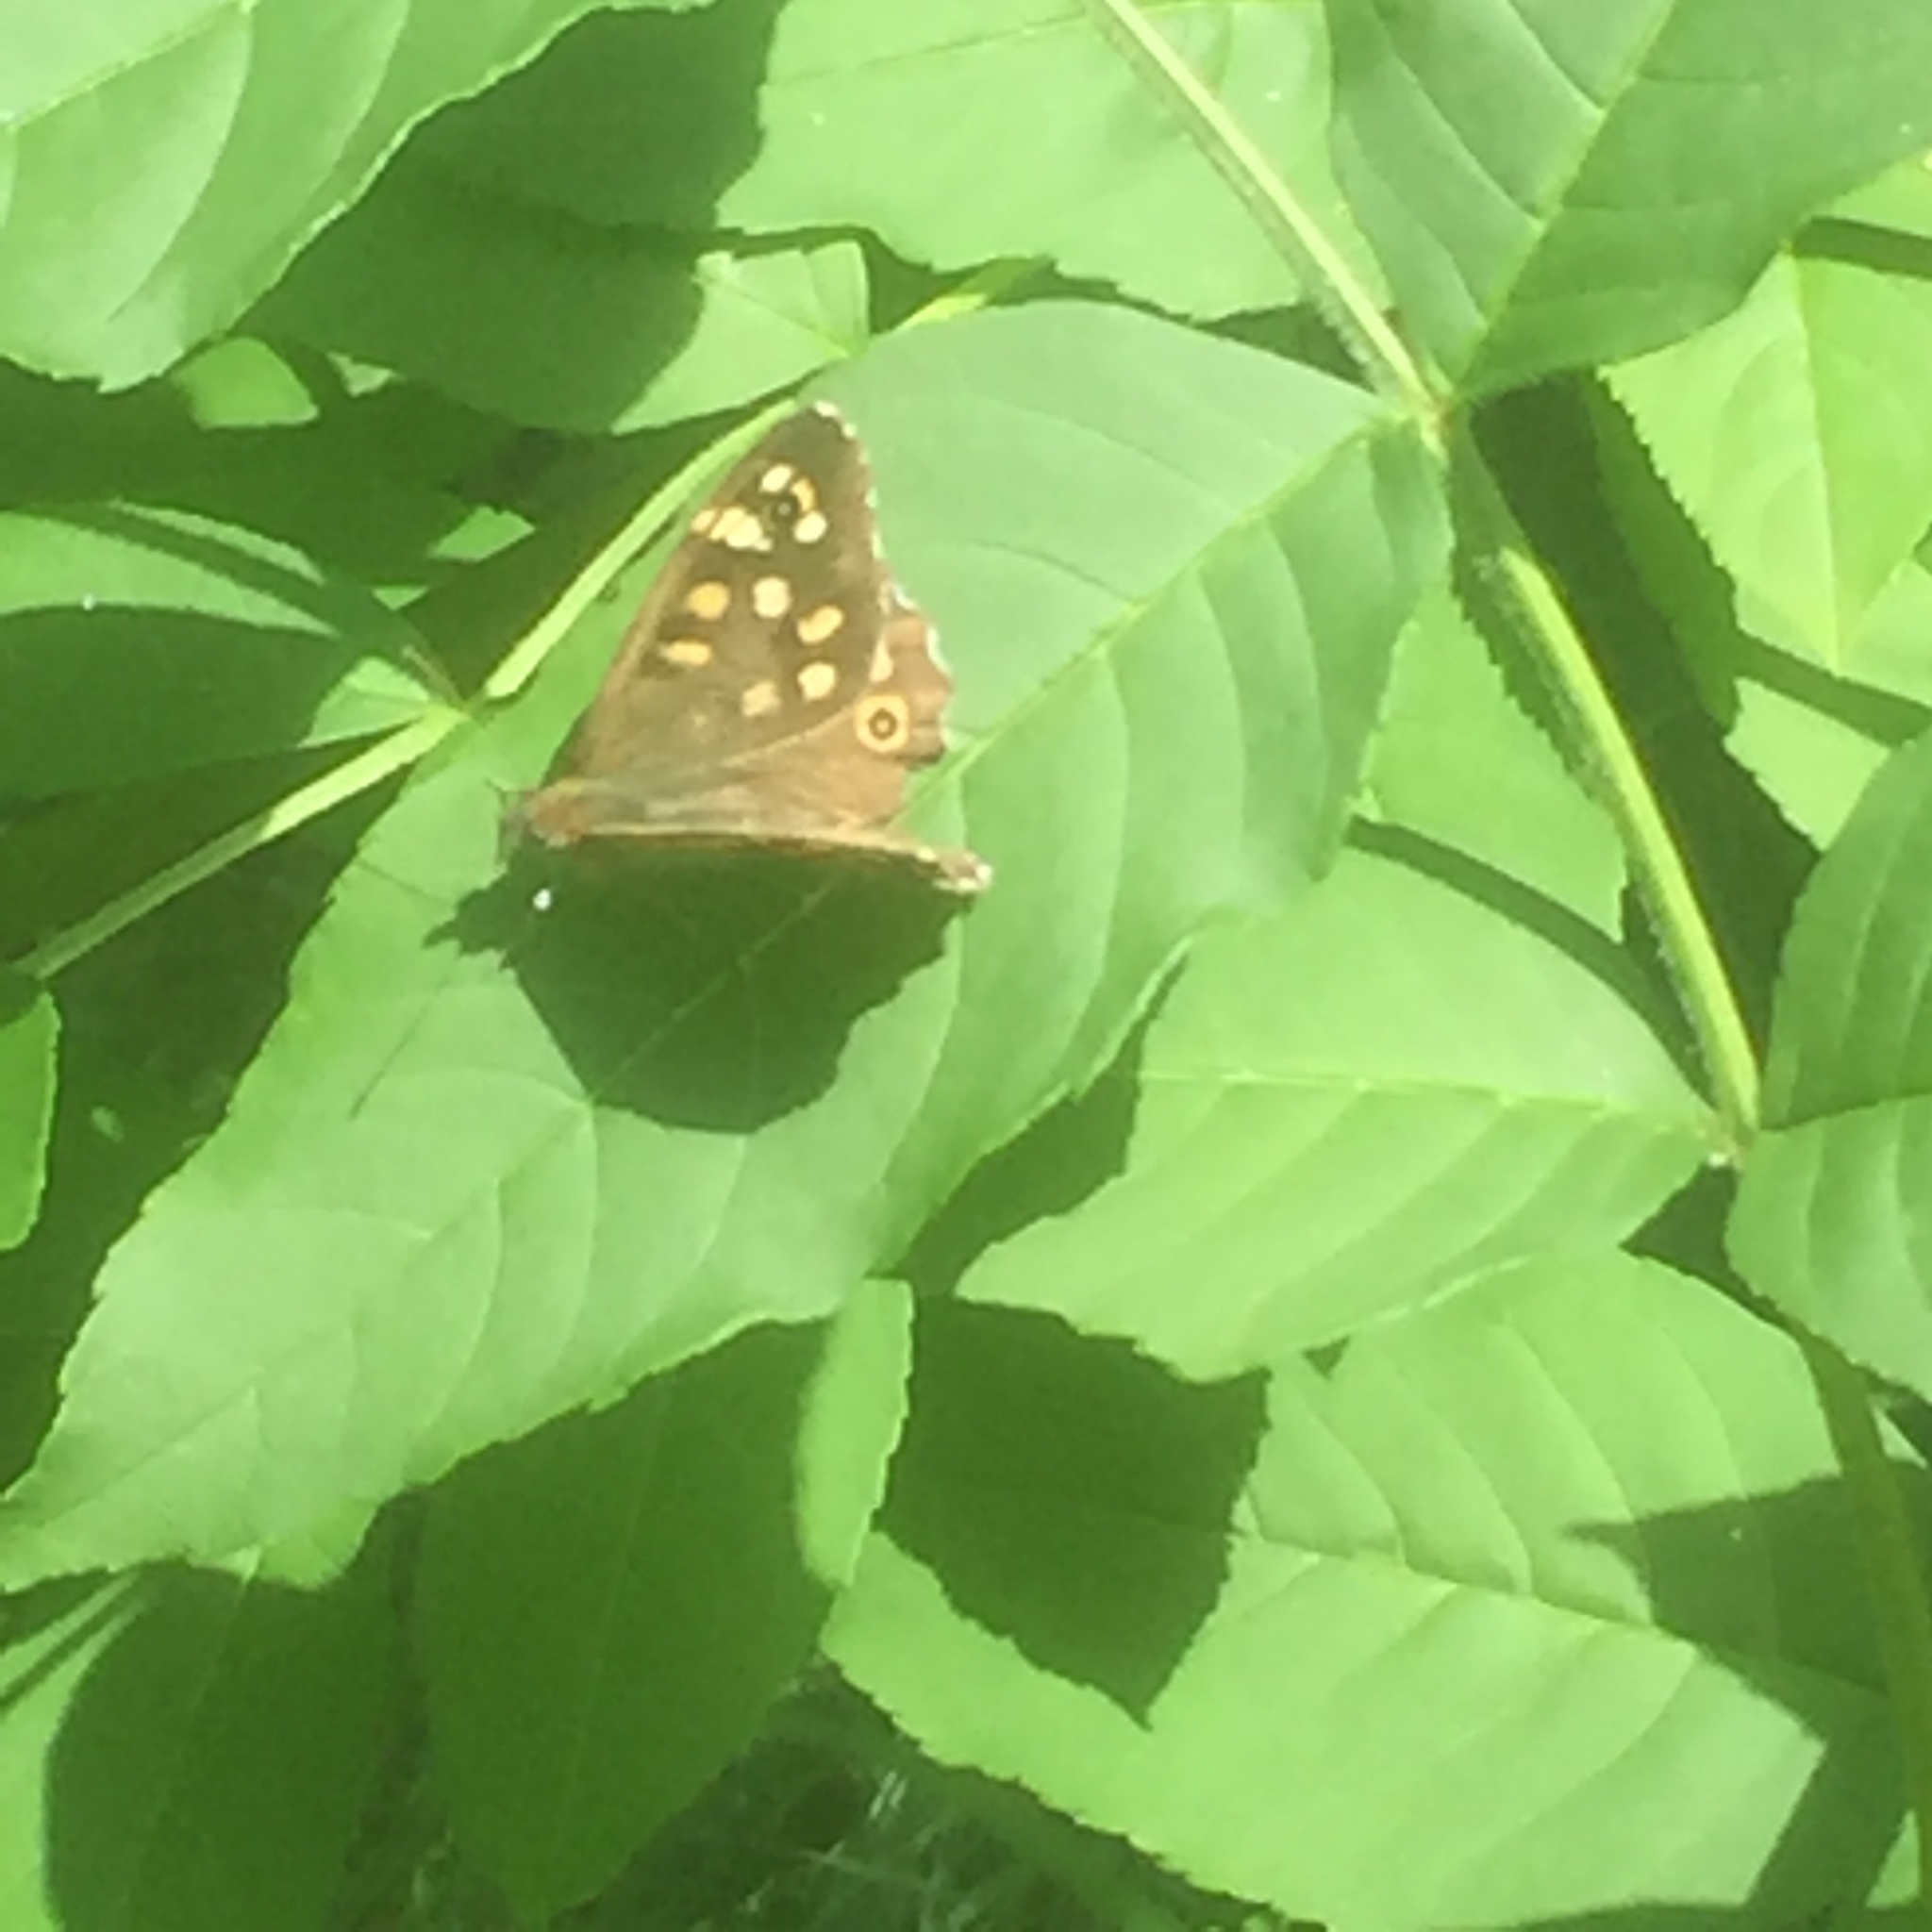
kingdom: Animalia
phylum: Arthropoda
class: Insecta
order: Lepidoptera
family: Nymphalidae
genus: Pararge
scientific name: Pararge aegeria
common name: Speckled wood
